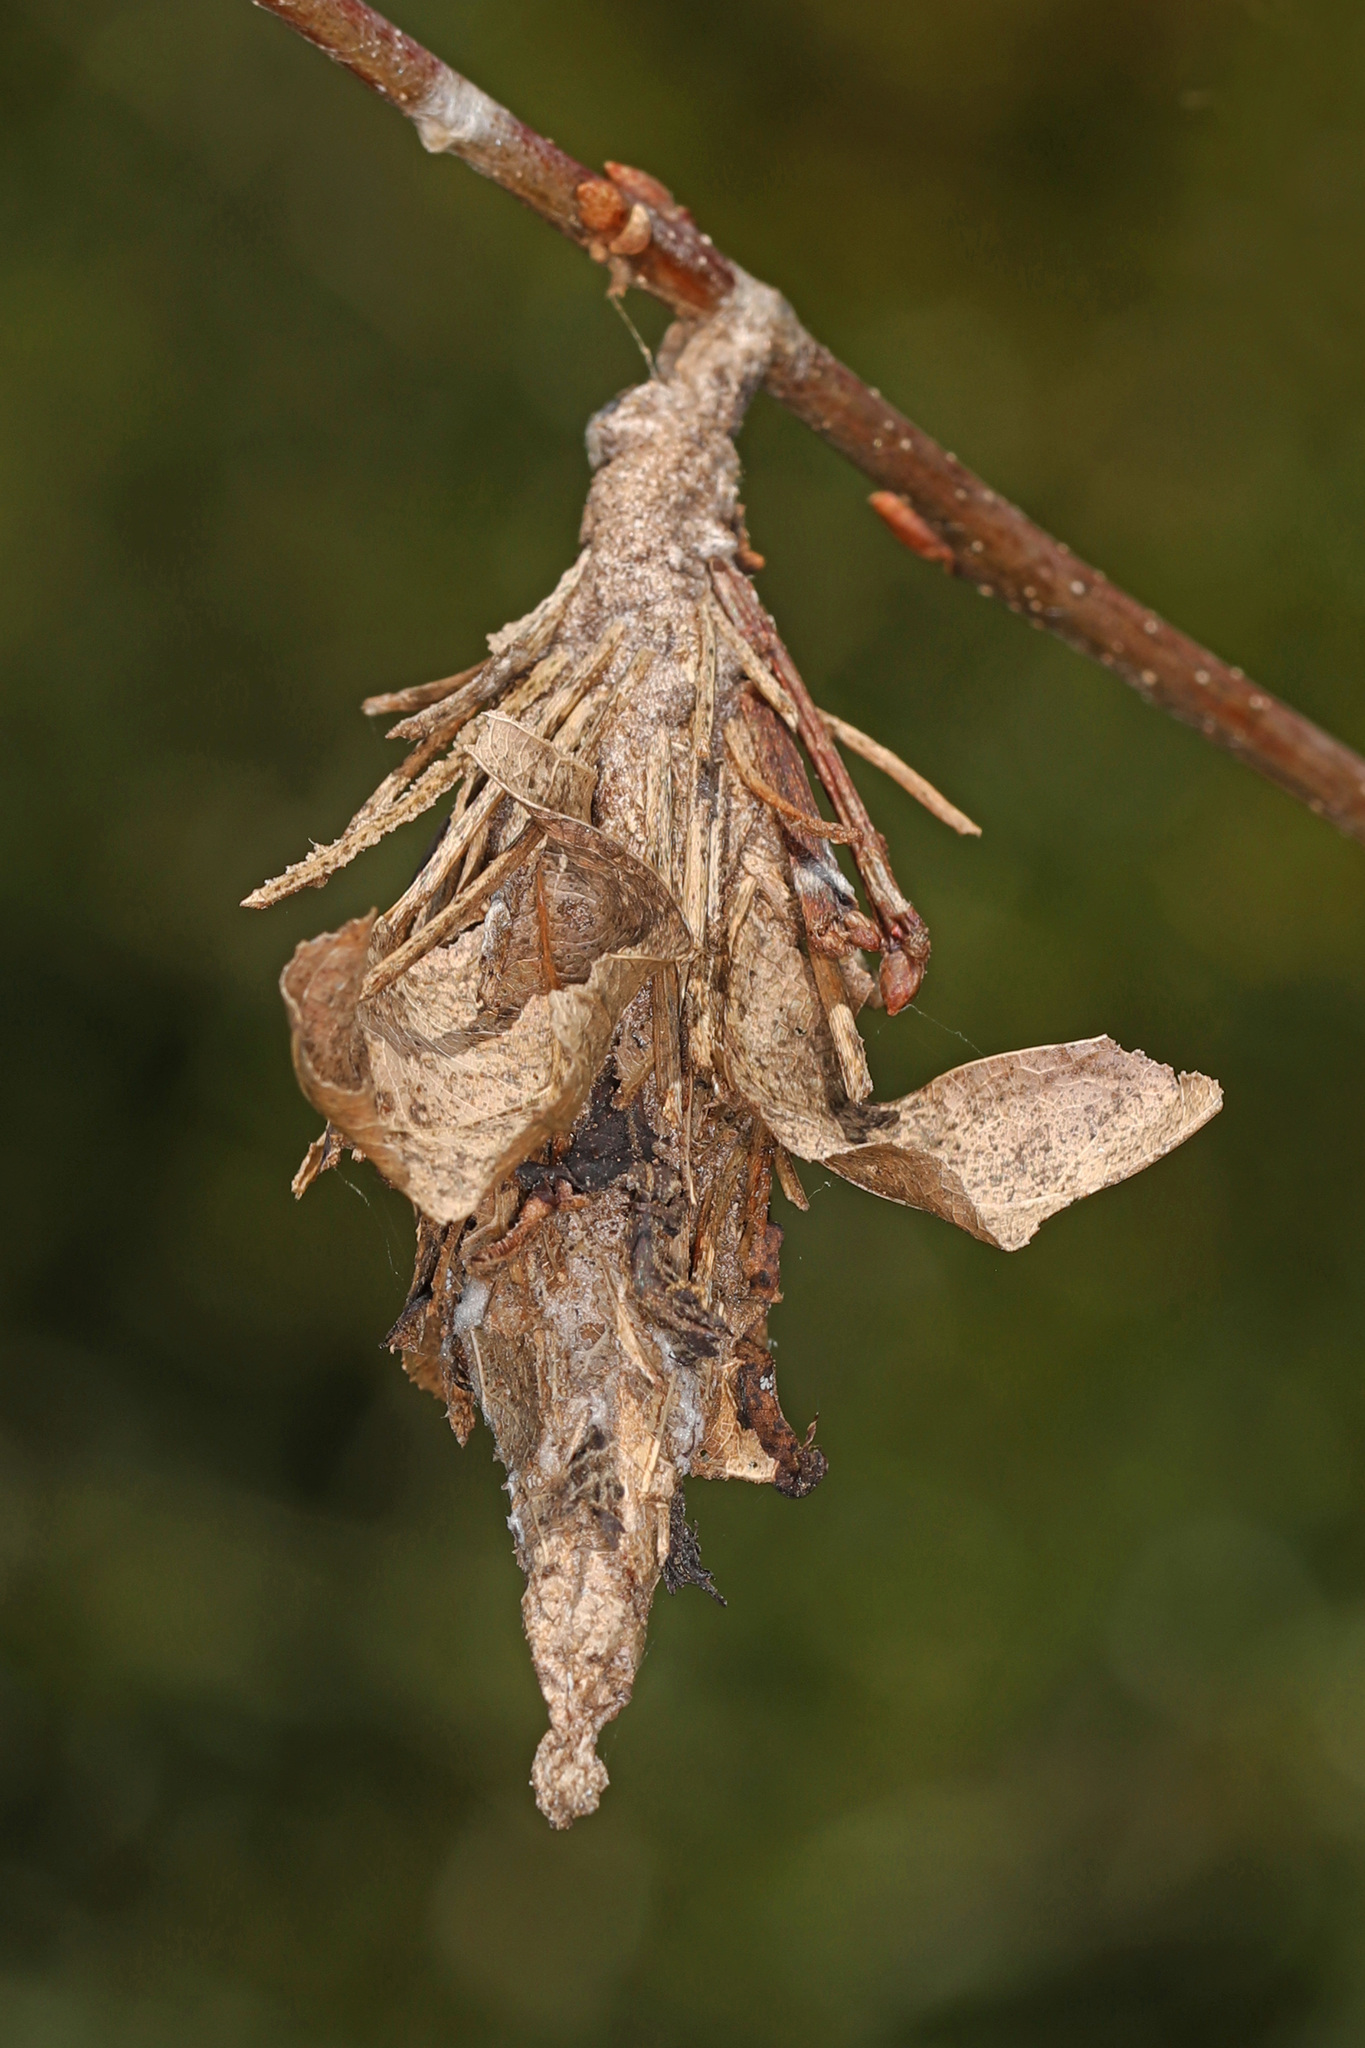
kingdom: Animalia
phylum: Arthropoda
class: Insecta
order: Lepidoptera
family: Psychidae
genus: Thyridopteryx
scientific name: Thyridopteryx ephemeraeformis
